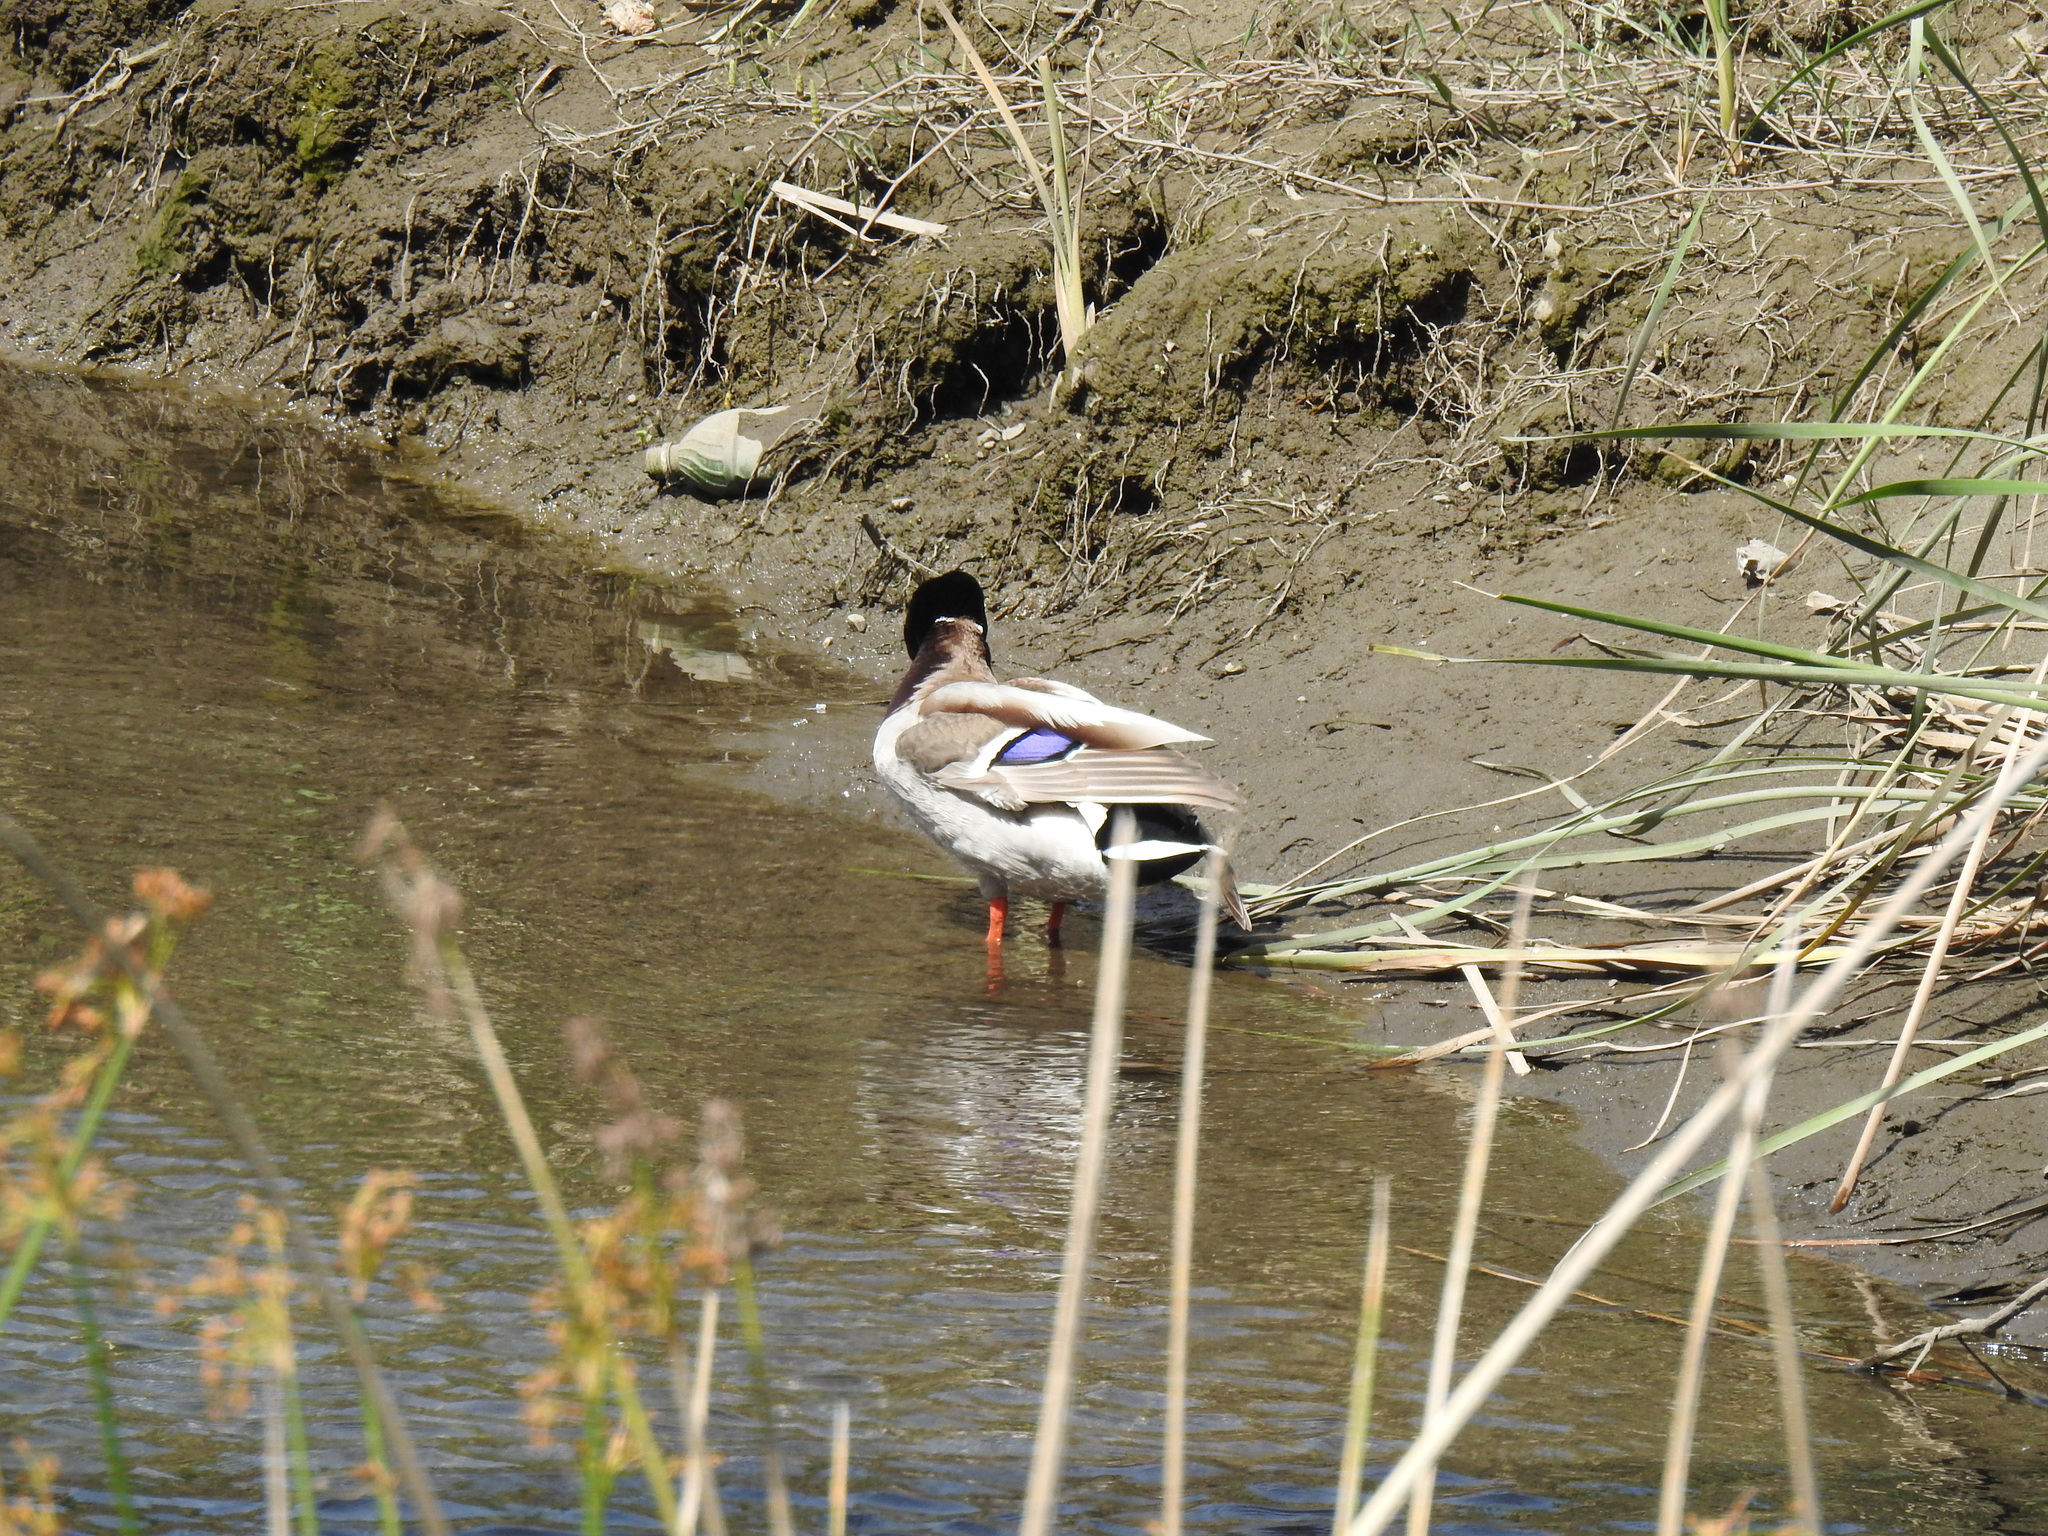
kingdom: Animalia
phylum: Chordata
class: Aves
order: Anseriformes
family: Anatidae
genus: Anas
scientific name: Anas platyrhynchos
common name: Mallard
